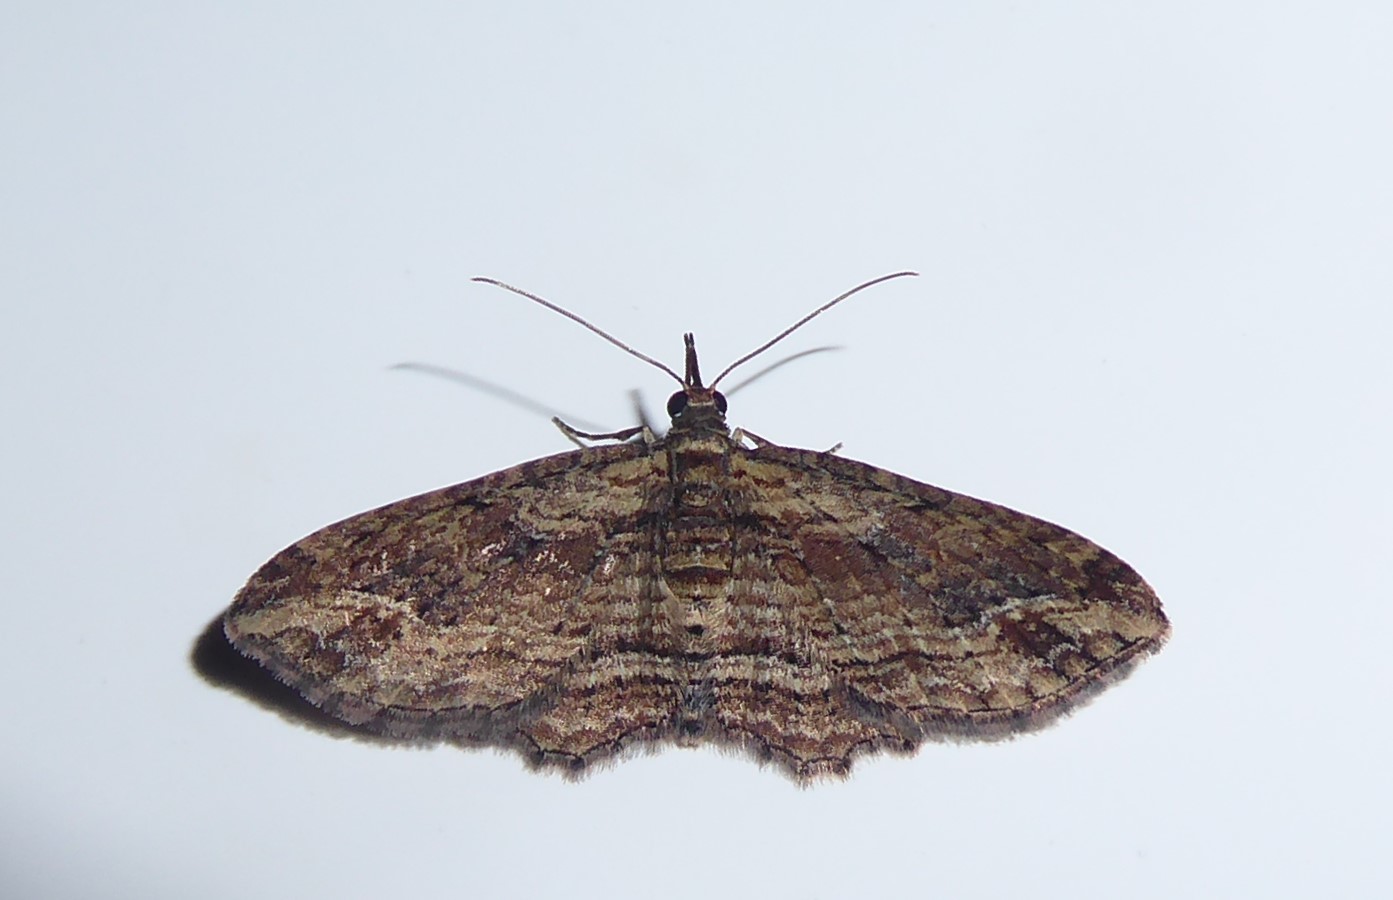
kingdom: Animalia
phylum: Arthropoda
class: Insecta
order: Lepidoptera
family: Geometridae
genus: Chloroclystis
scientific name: Chloroclystis filata
